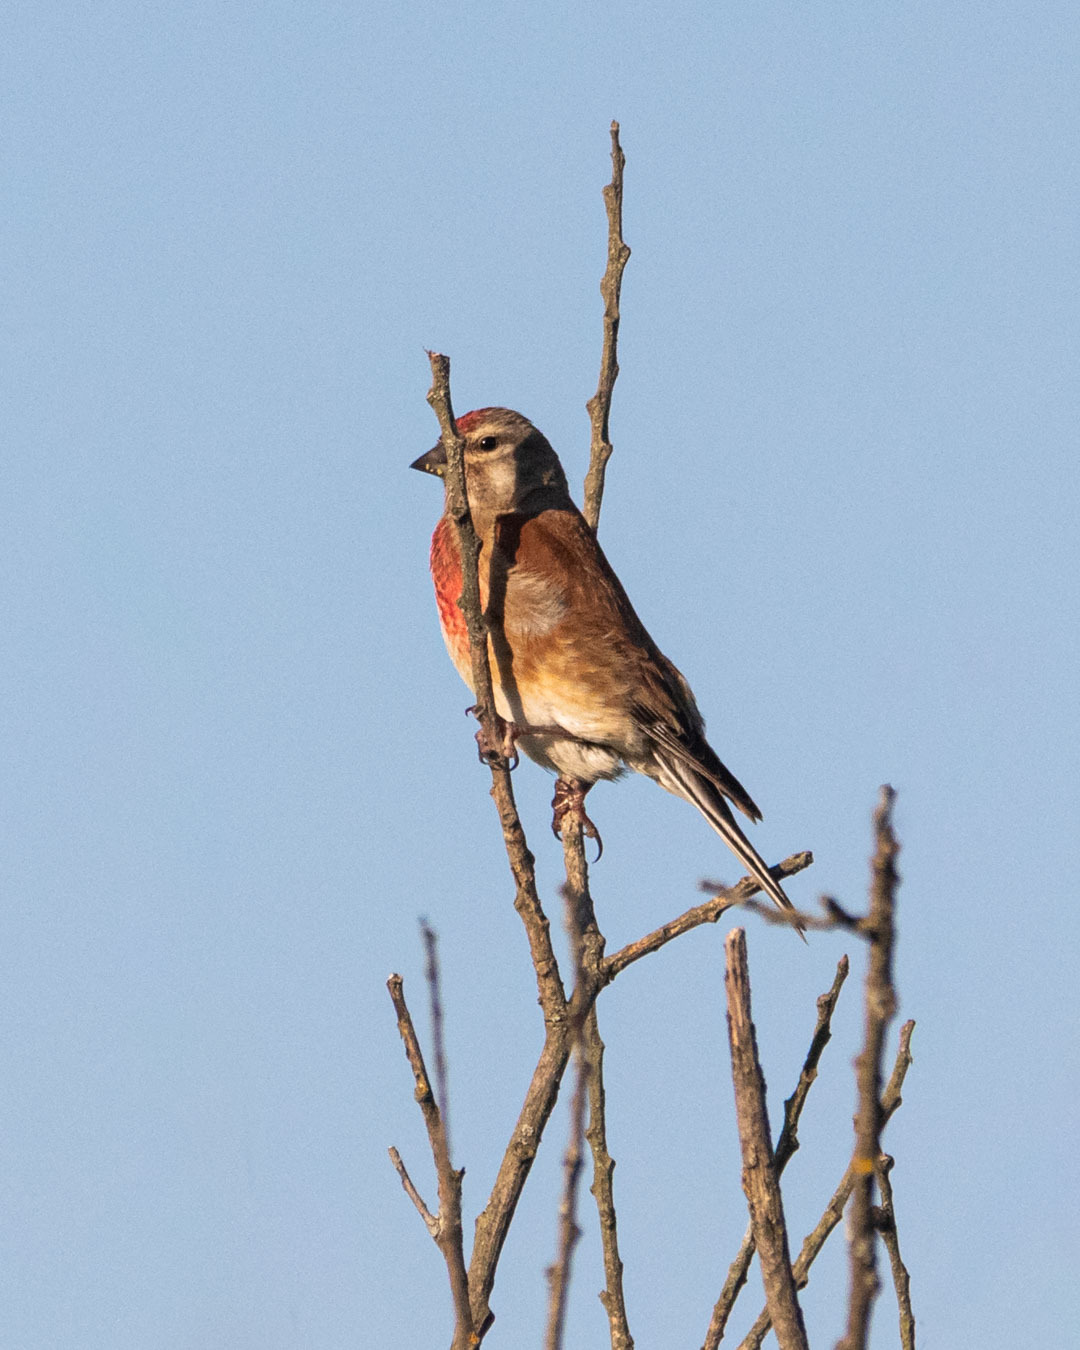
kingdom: Animalia
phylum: Chordata
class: Aves
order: Passeriformes
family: Fringillidae
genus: Linaria
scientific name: Linaria cannabina
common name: Common linnet
